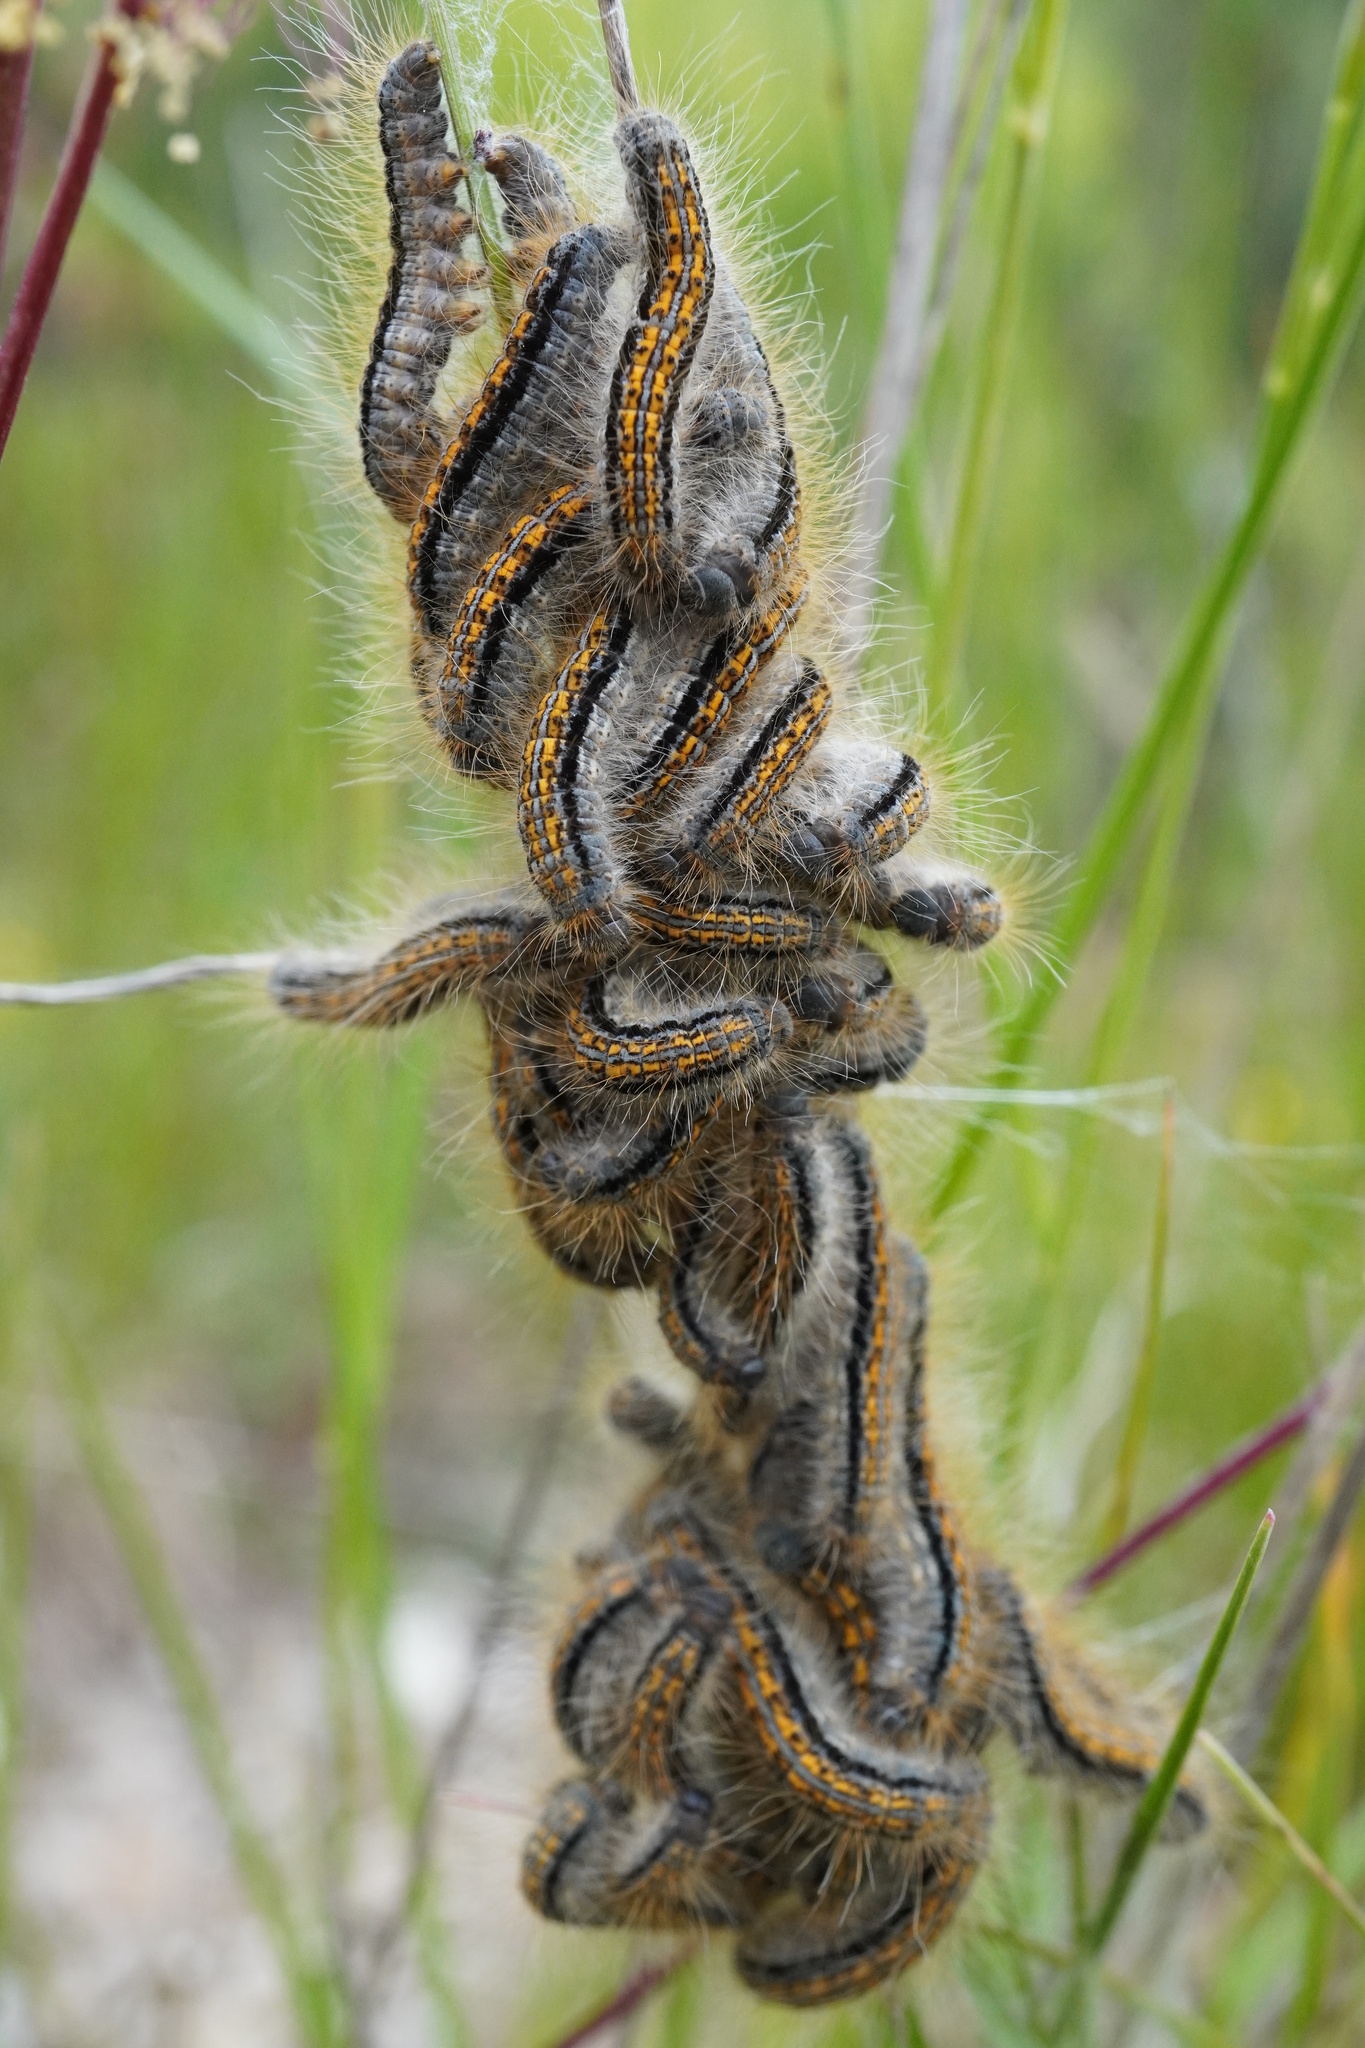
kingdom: Animalia
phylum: Arthropoda
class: Insecta
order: Lepidoptera
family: Lasiocampidae
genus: Malacosoma
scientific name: Malacosoma castrense
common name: Ground lackey
